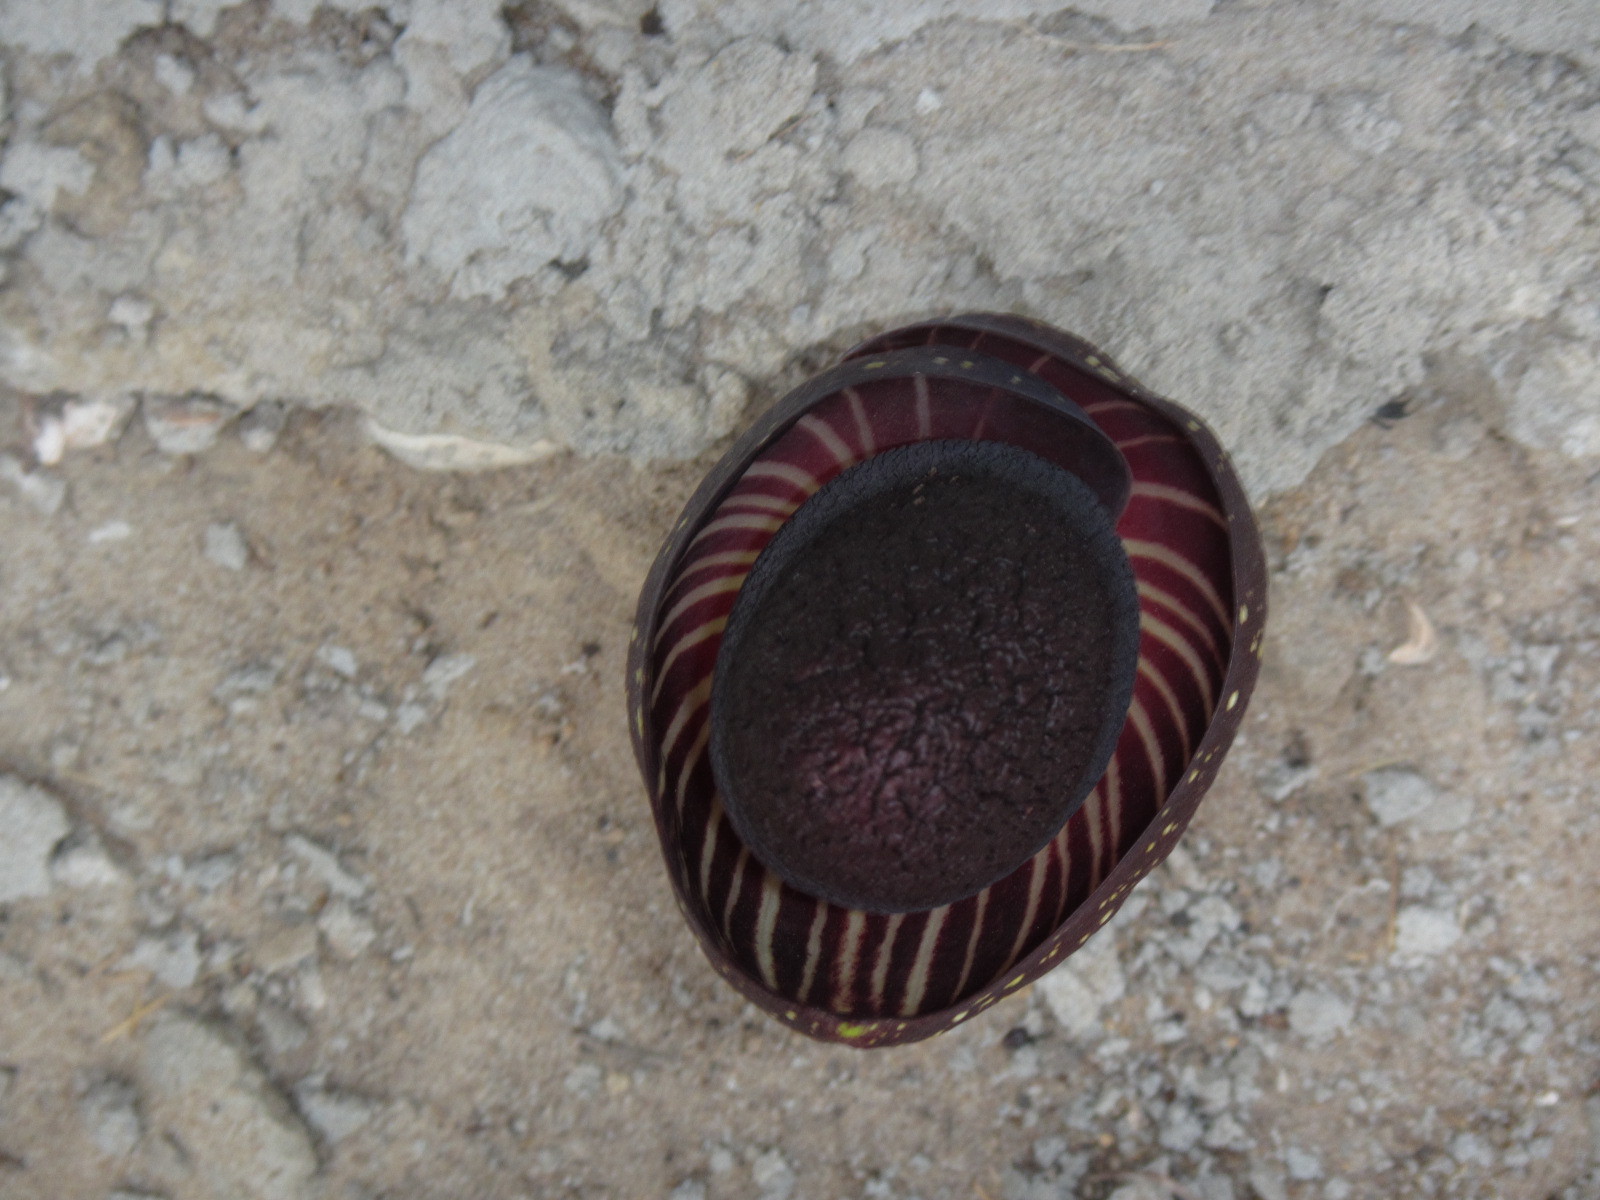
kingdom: Plantae
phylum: Tracheophyta
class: Liliopsida
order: Alismatales
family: Araceae
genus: Amorphophallus
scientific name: Amorphophallus aphyllus
